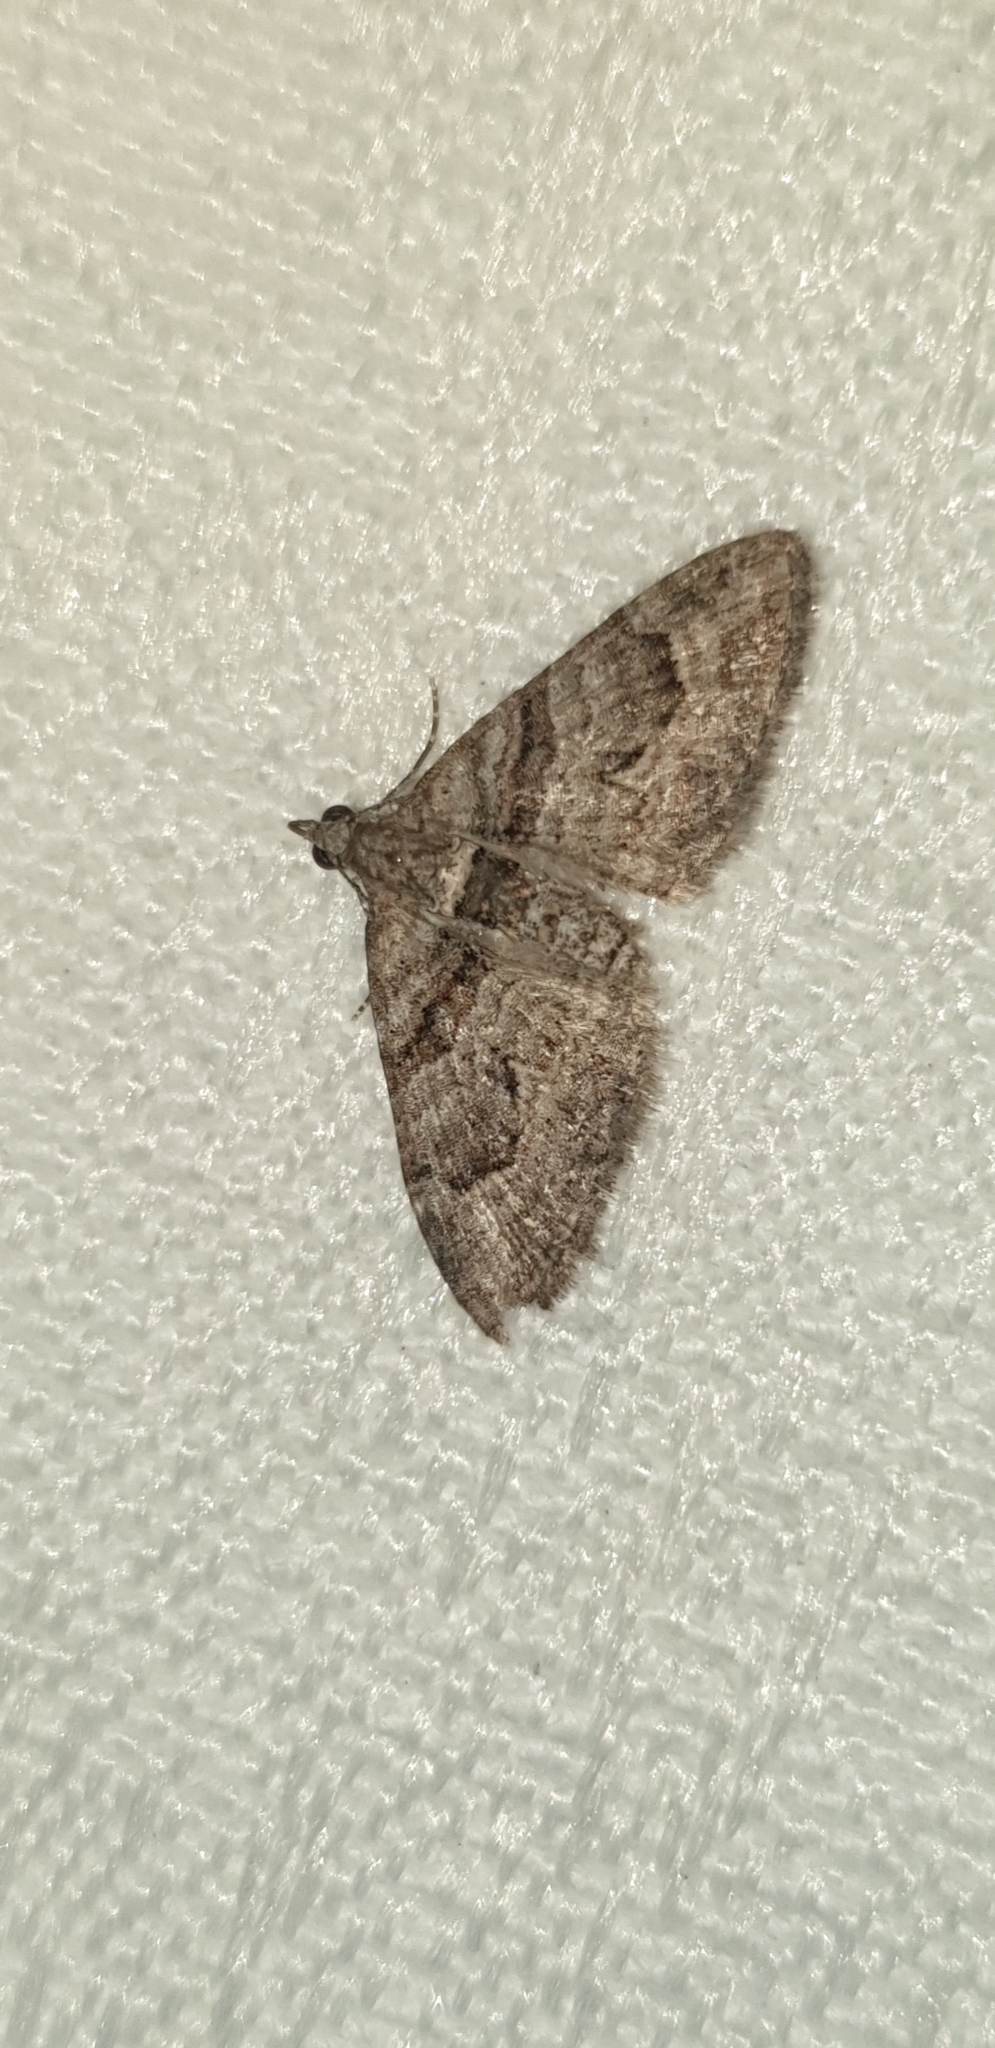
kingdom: Animalia
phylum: Arthropoda
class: Insecta
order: Lepidoptera
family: Geometridae
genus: Phrissogonus
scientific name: Phrissogonus laticostata
